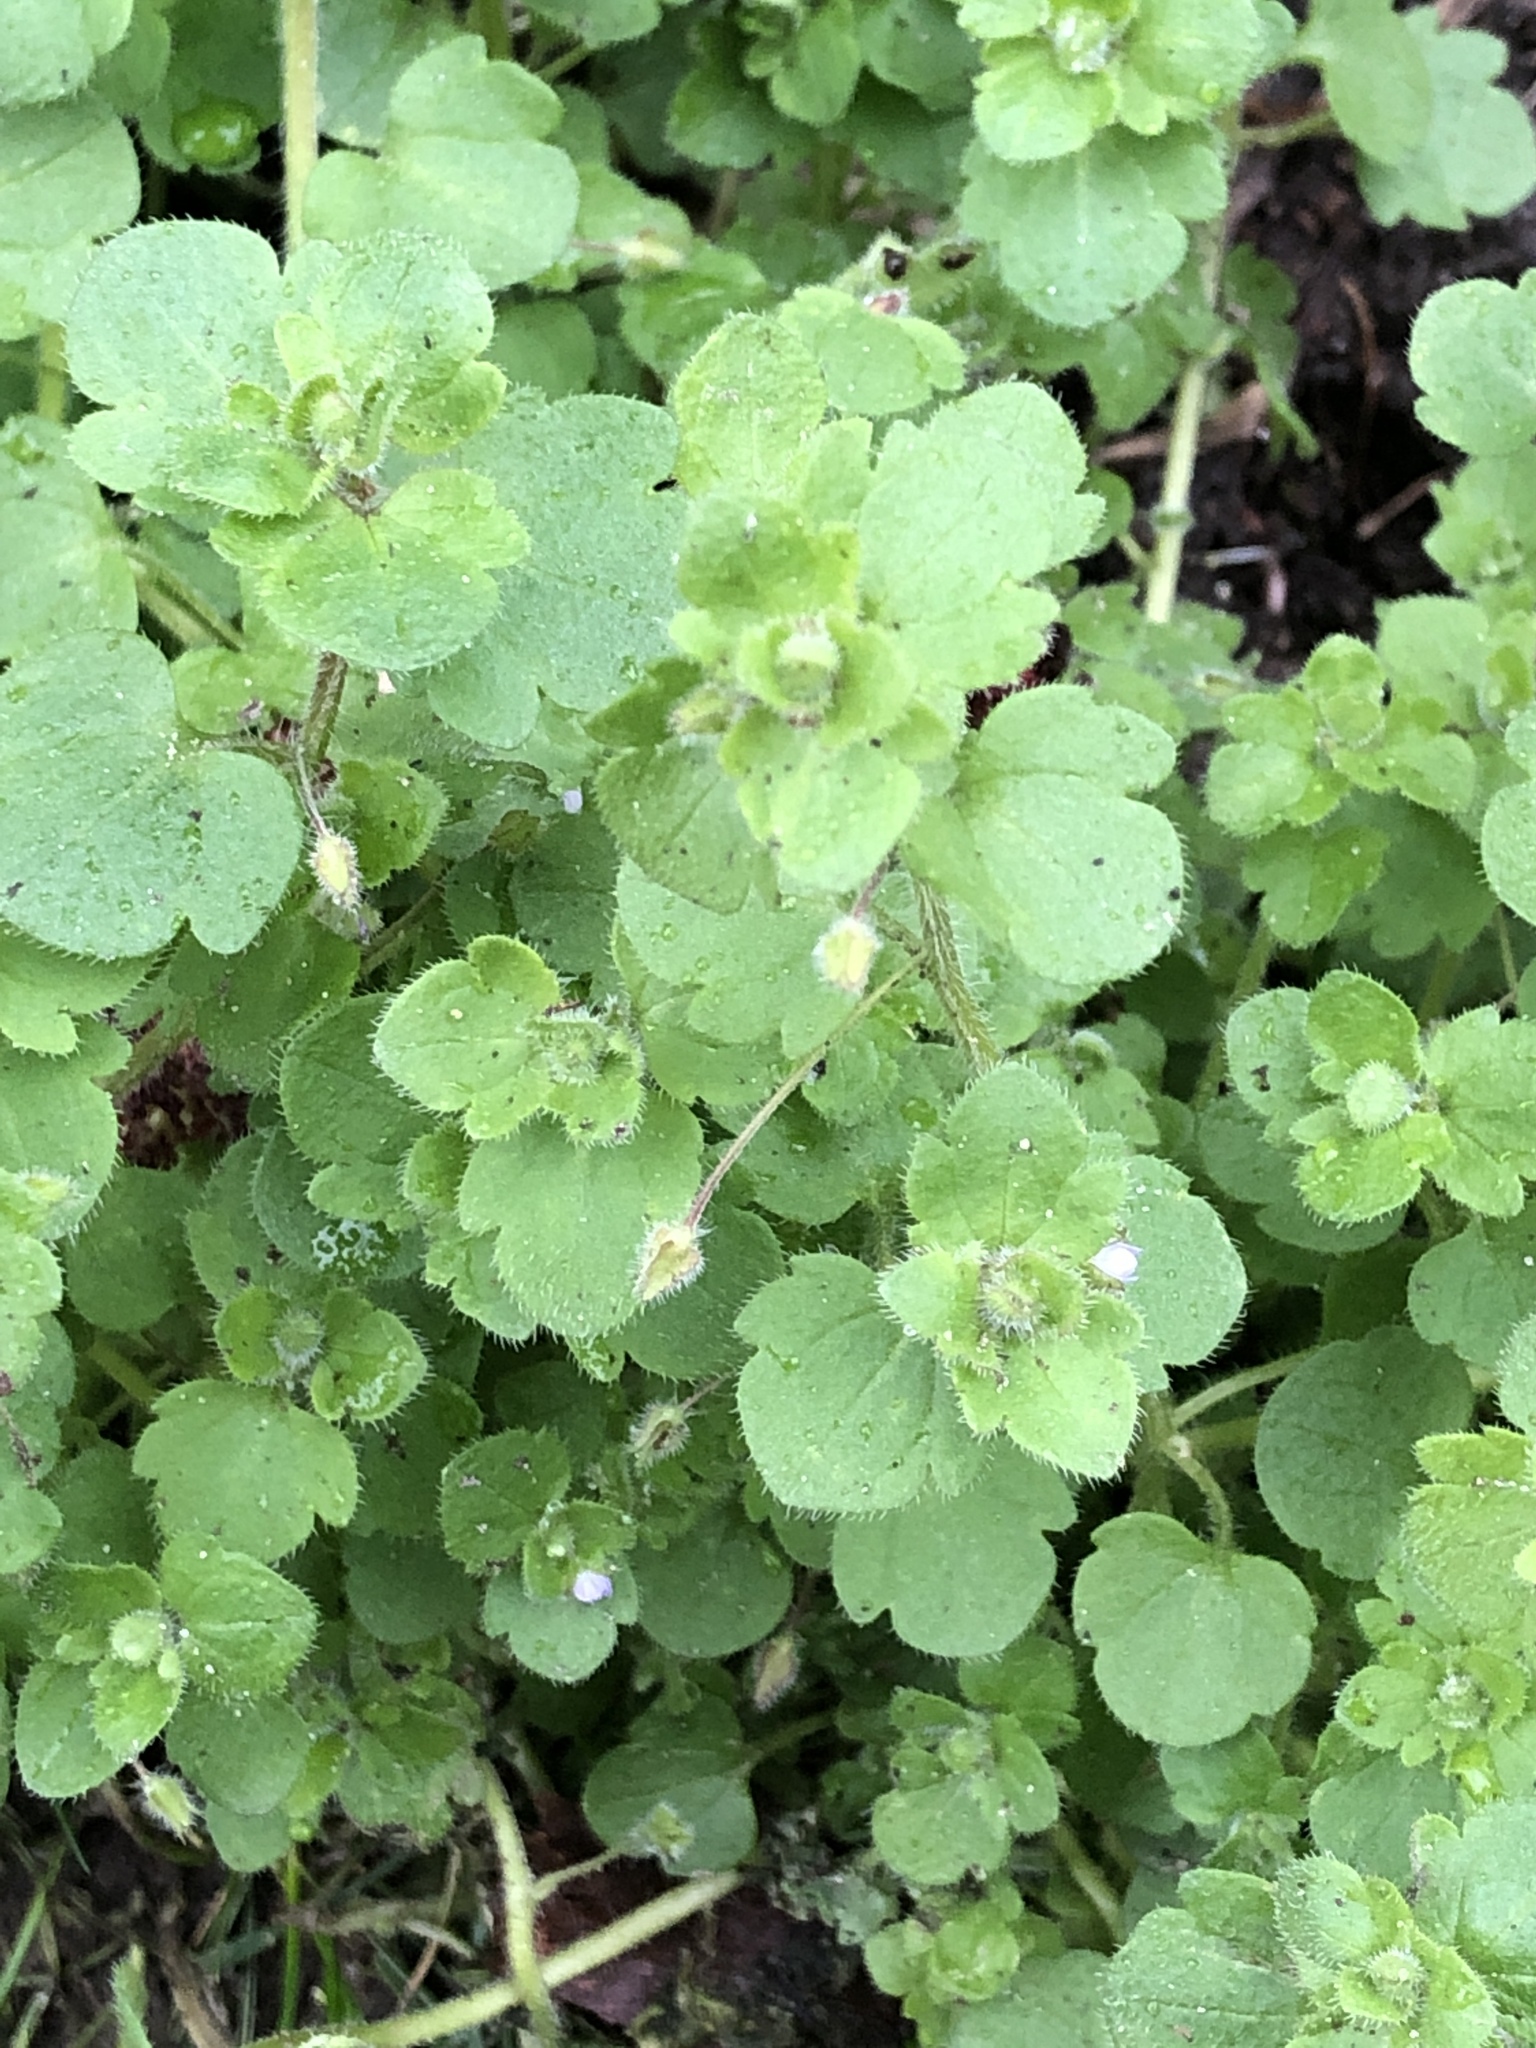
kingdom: Plantae
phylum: Tracheophyta
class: Magnoliopsida
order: Lamiales
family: Plantaginaceae
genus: Veronica
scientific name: Veronica sublobata
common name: False ivy-leaved speedwell
